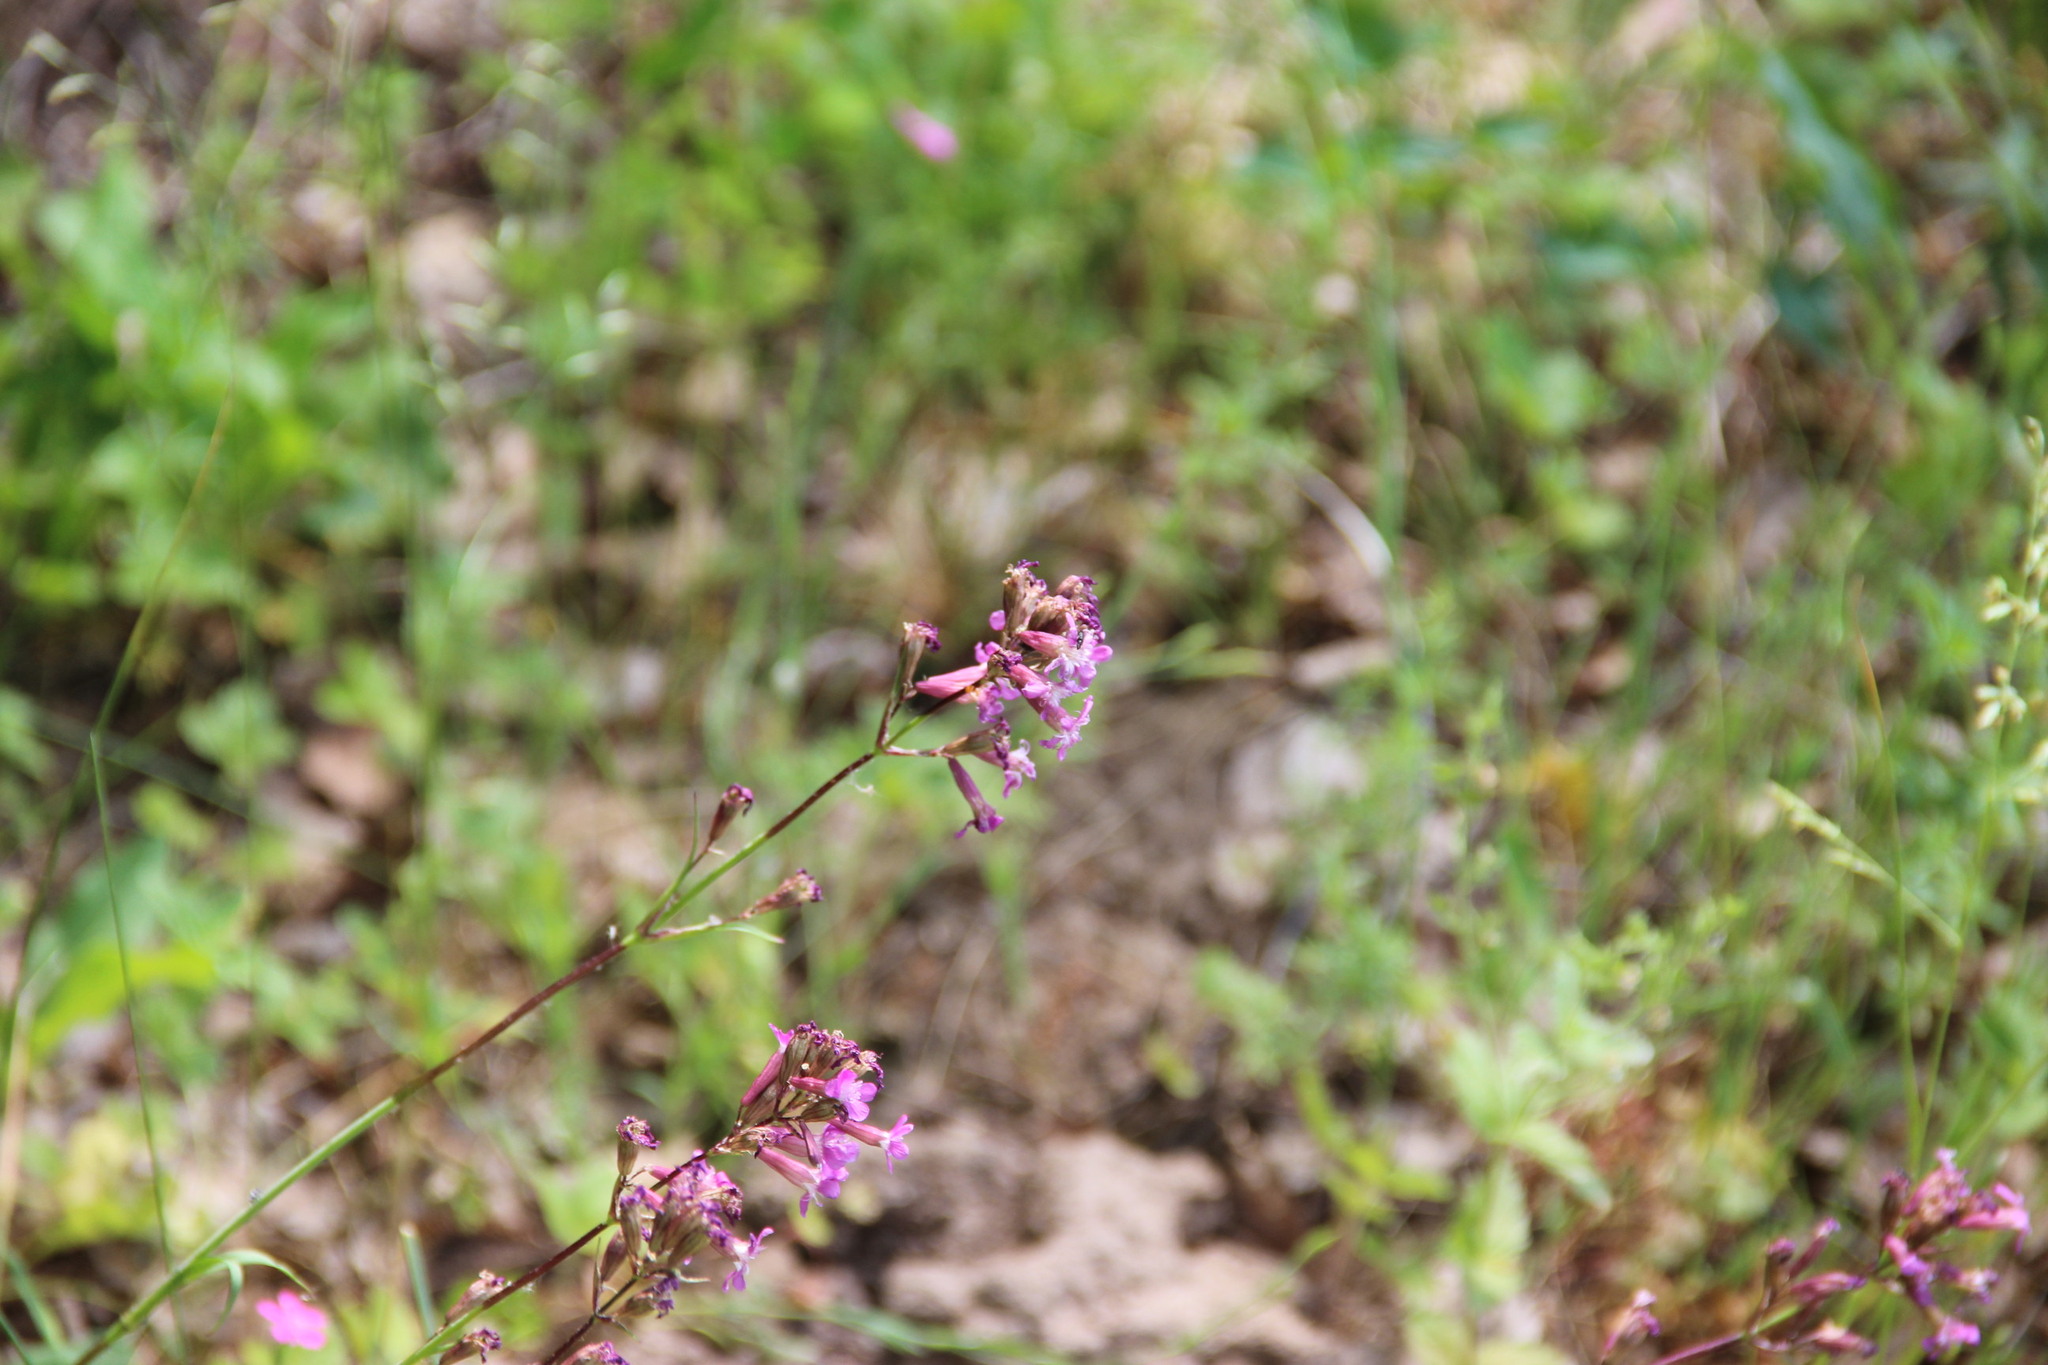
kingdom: Plantae
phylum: Tracheophyta
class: Magnoliopsida
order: Caryophyllales
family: Caryophyllaceae
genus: Viscaria
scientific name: Viscaria vulgaris
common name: Clammy campion
